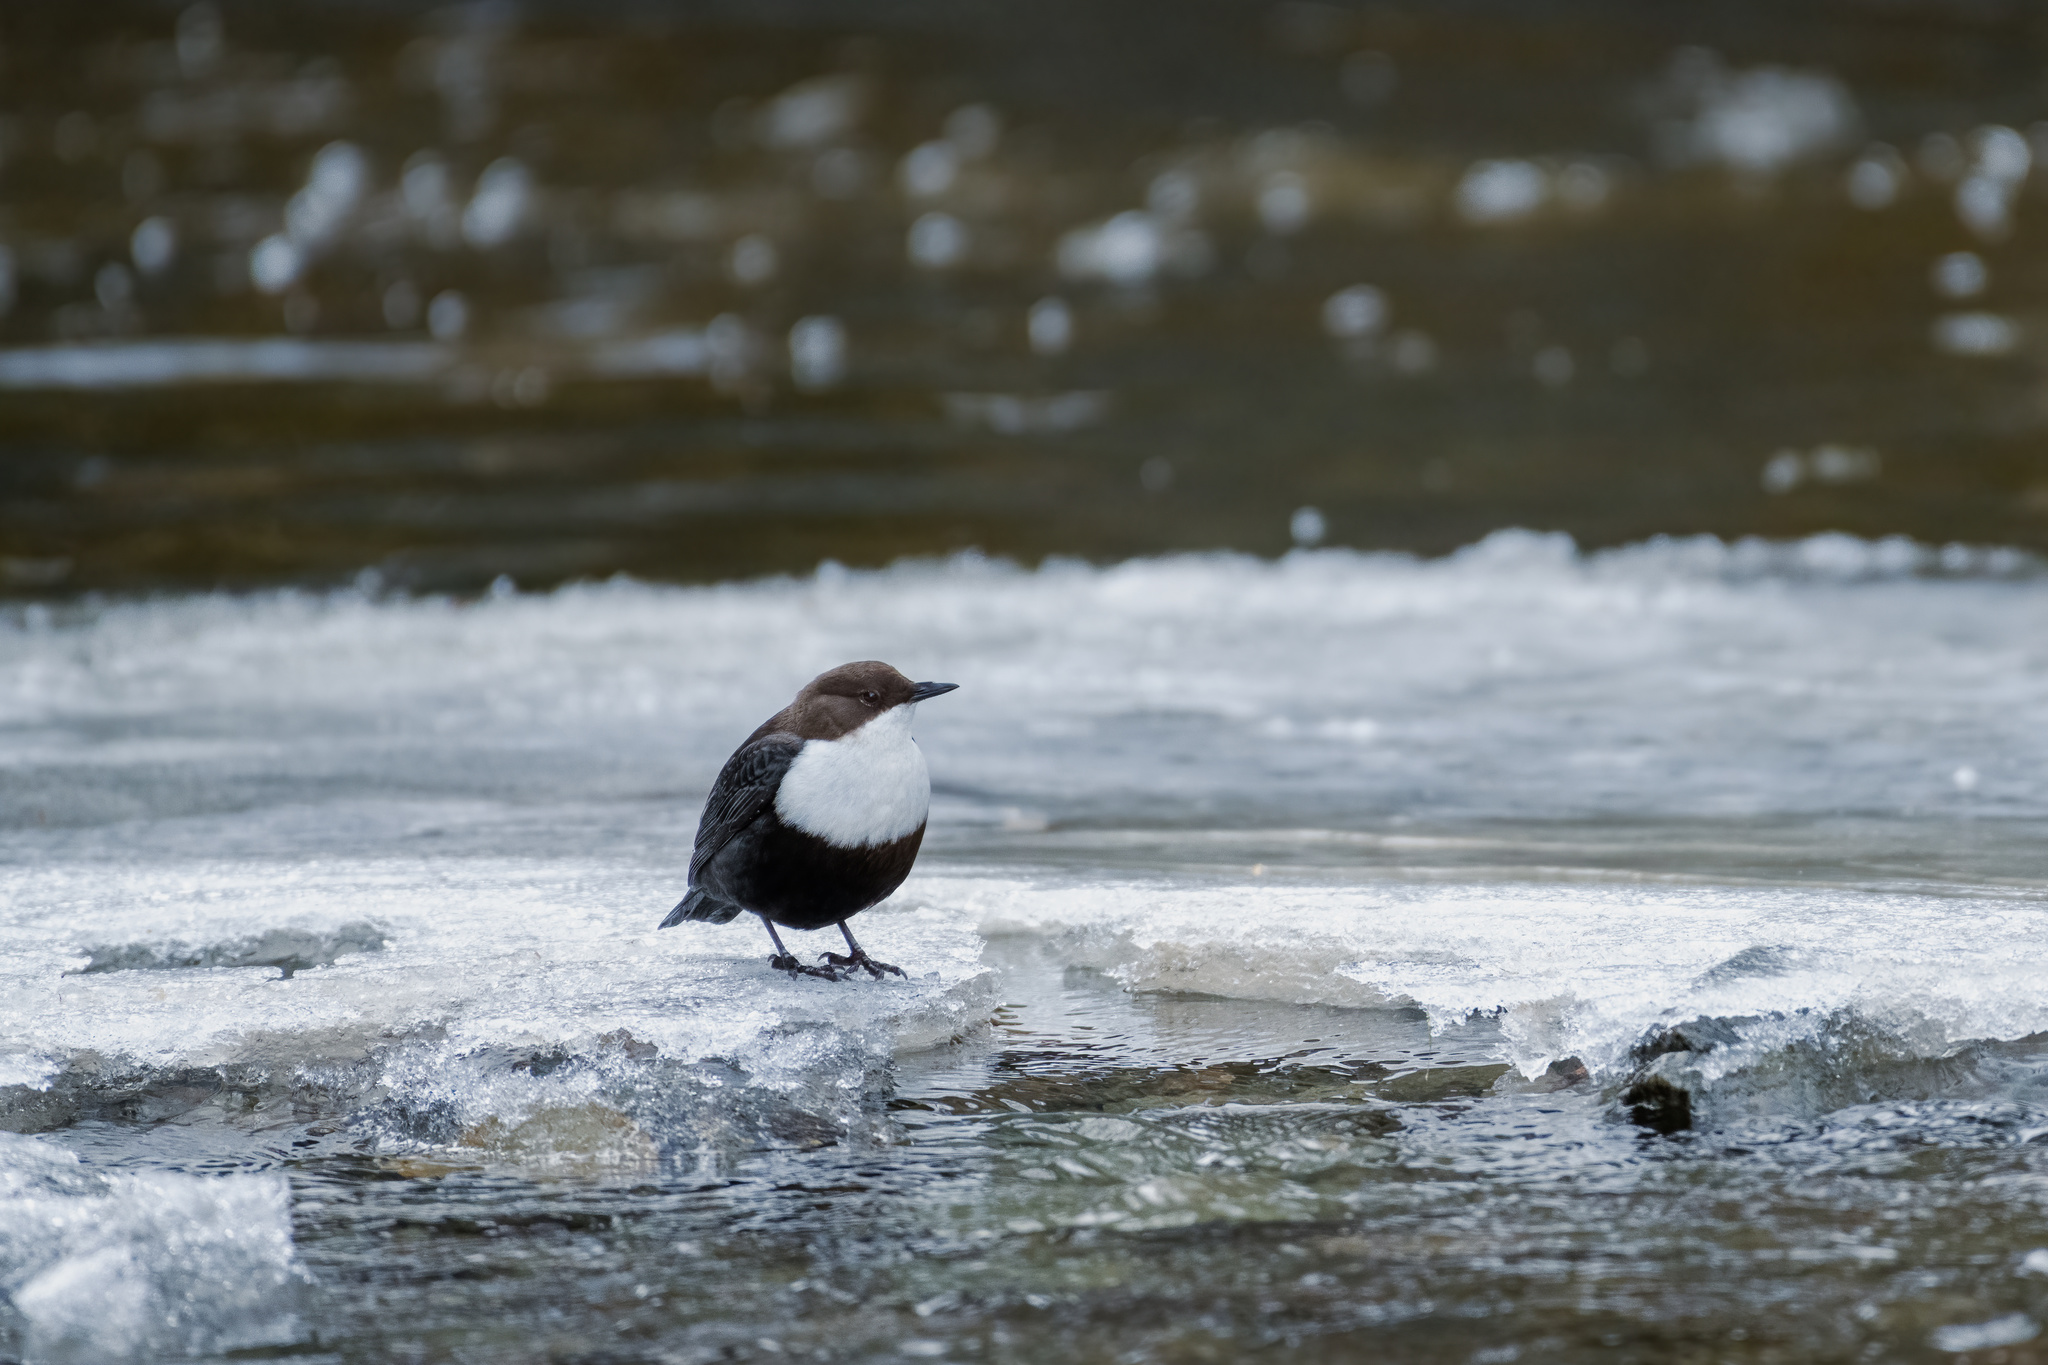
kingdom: Animalia
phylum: Chordata
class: Aves
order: Passeriformes
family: Cinclidae
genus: Cinclus
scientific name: Cinclus cinclus
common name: White-throated dipper
